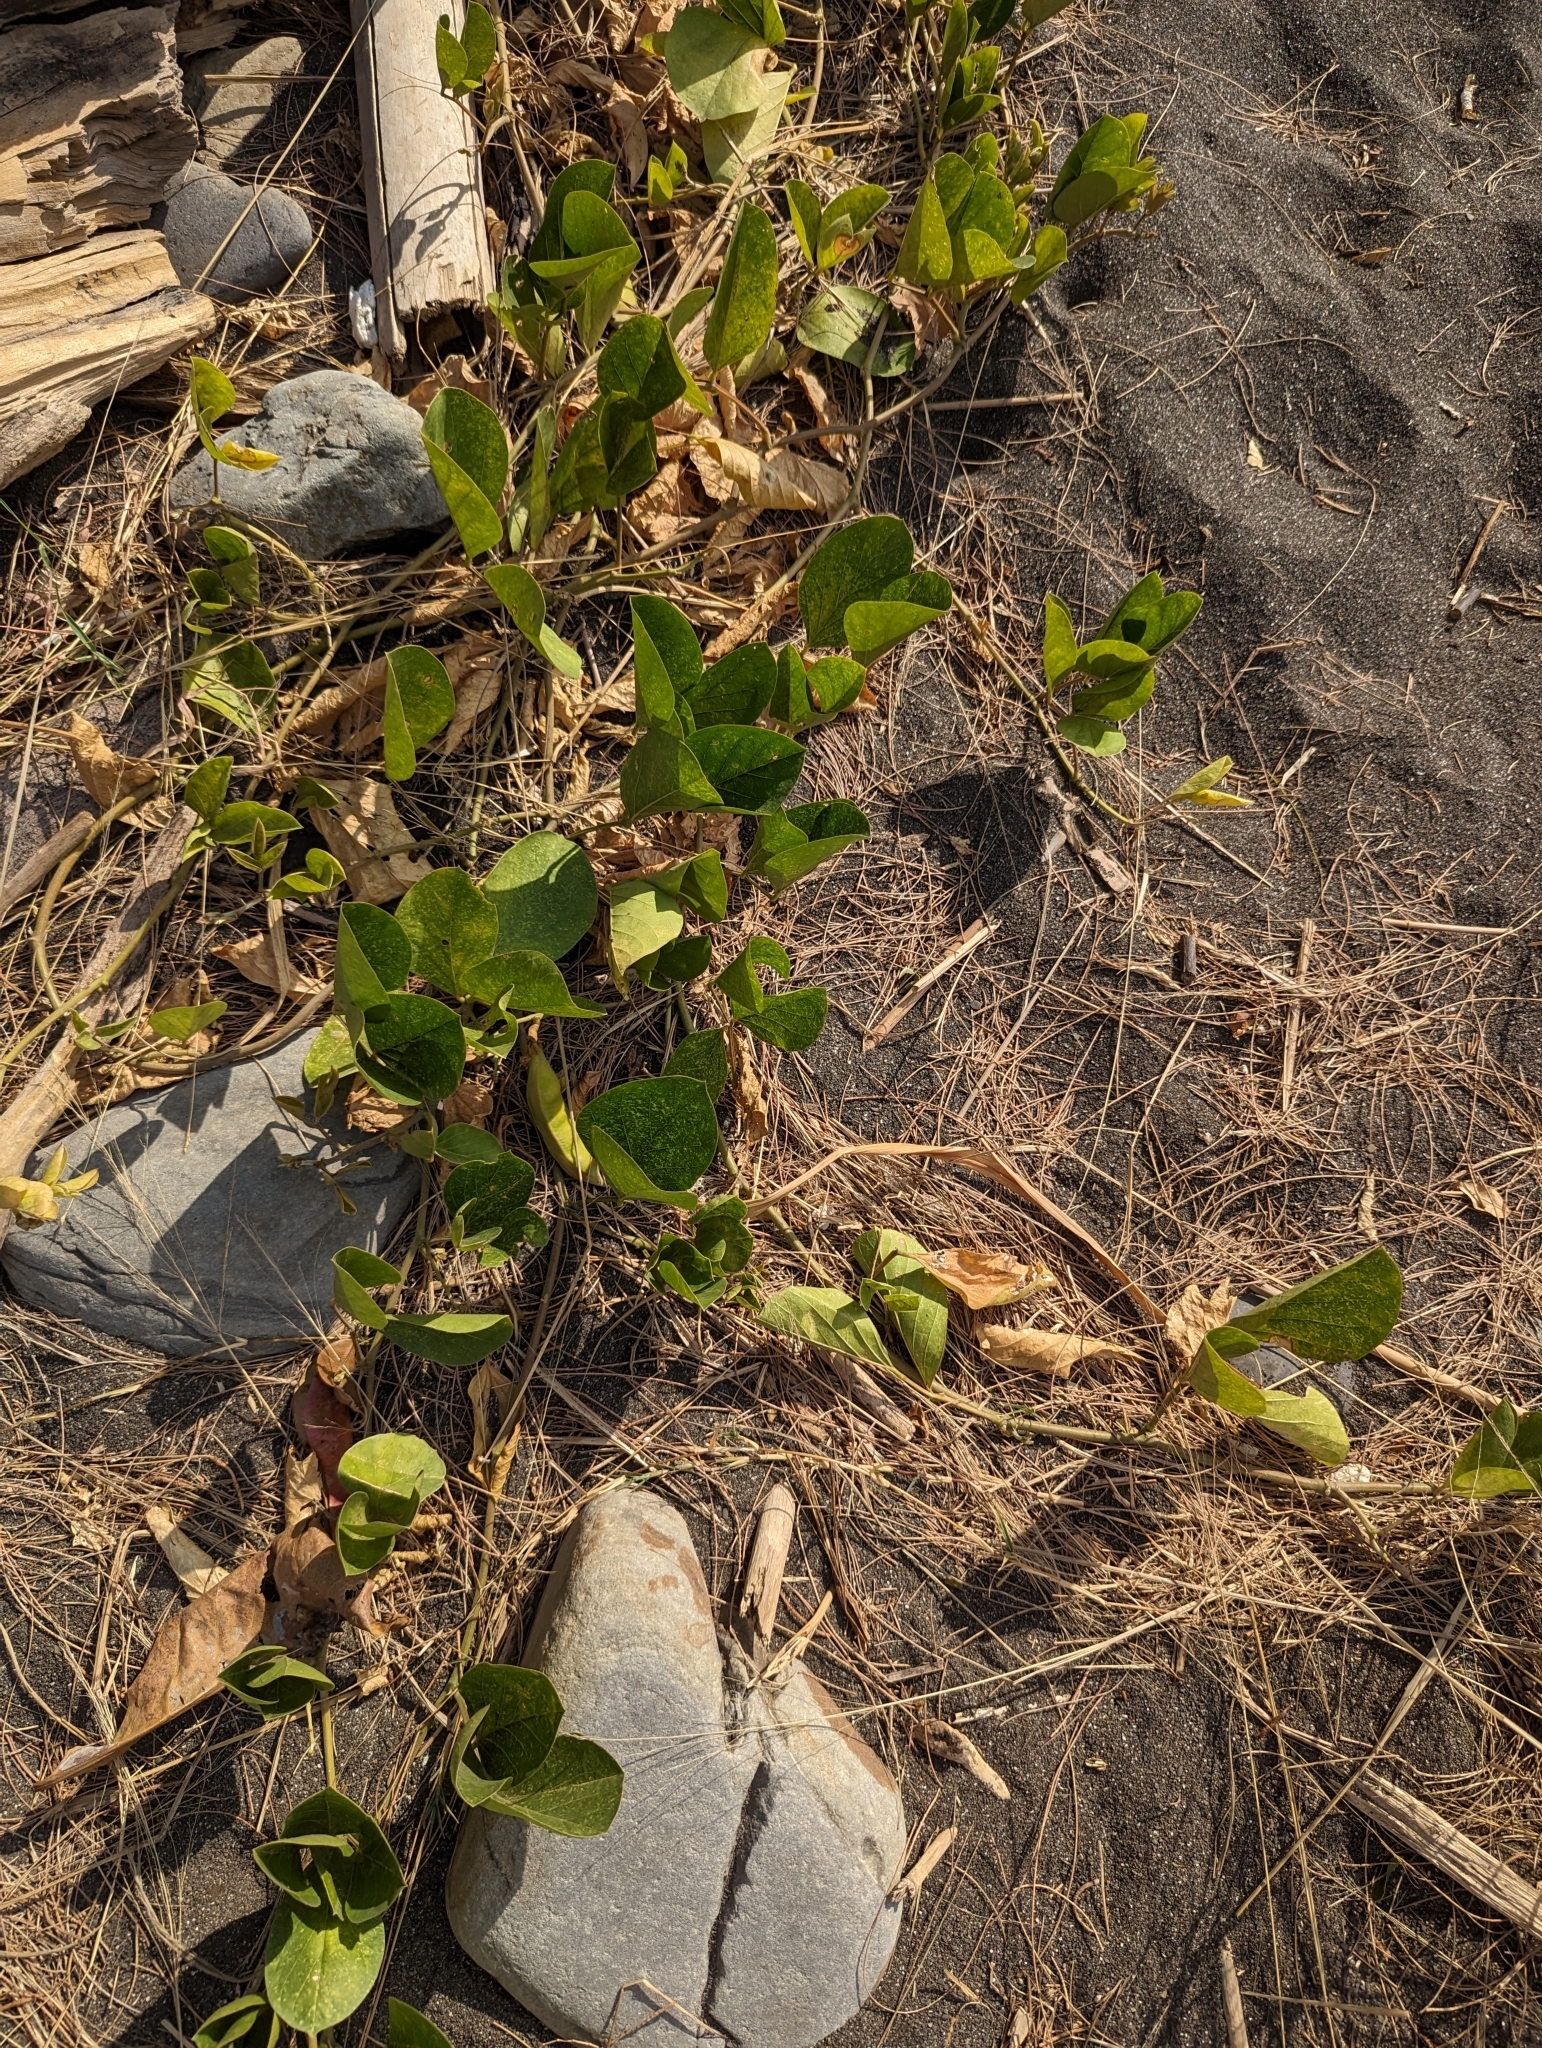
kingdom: Plantae
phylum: Tracheophyta
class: Magnoliopsida
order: Fabales
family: Fabaceae
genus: Canavalia
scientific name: Canavalia rosea
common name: Beach-bean
